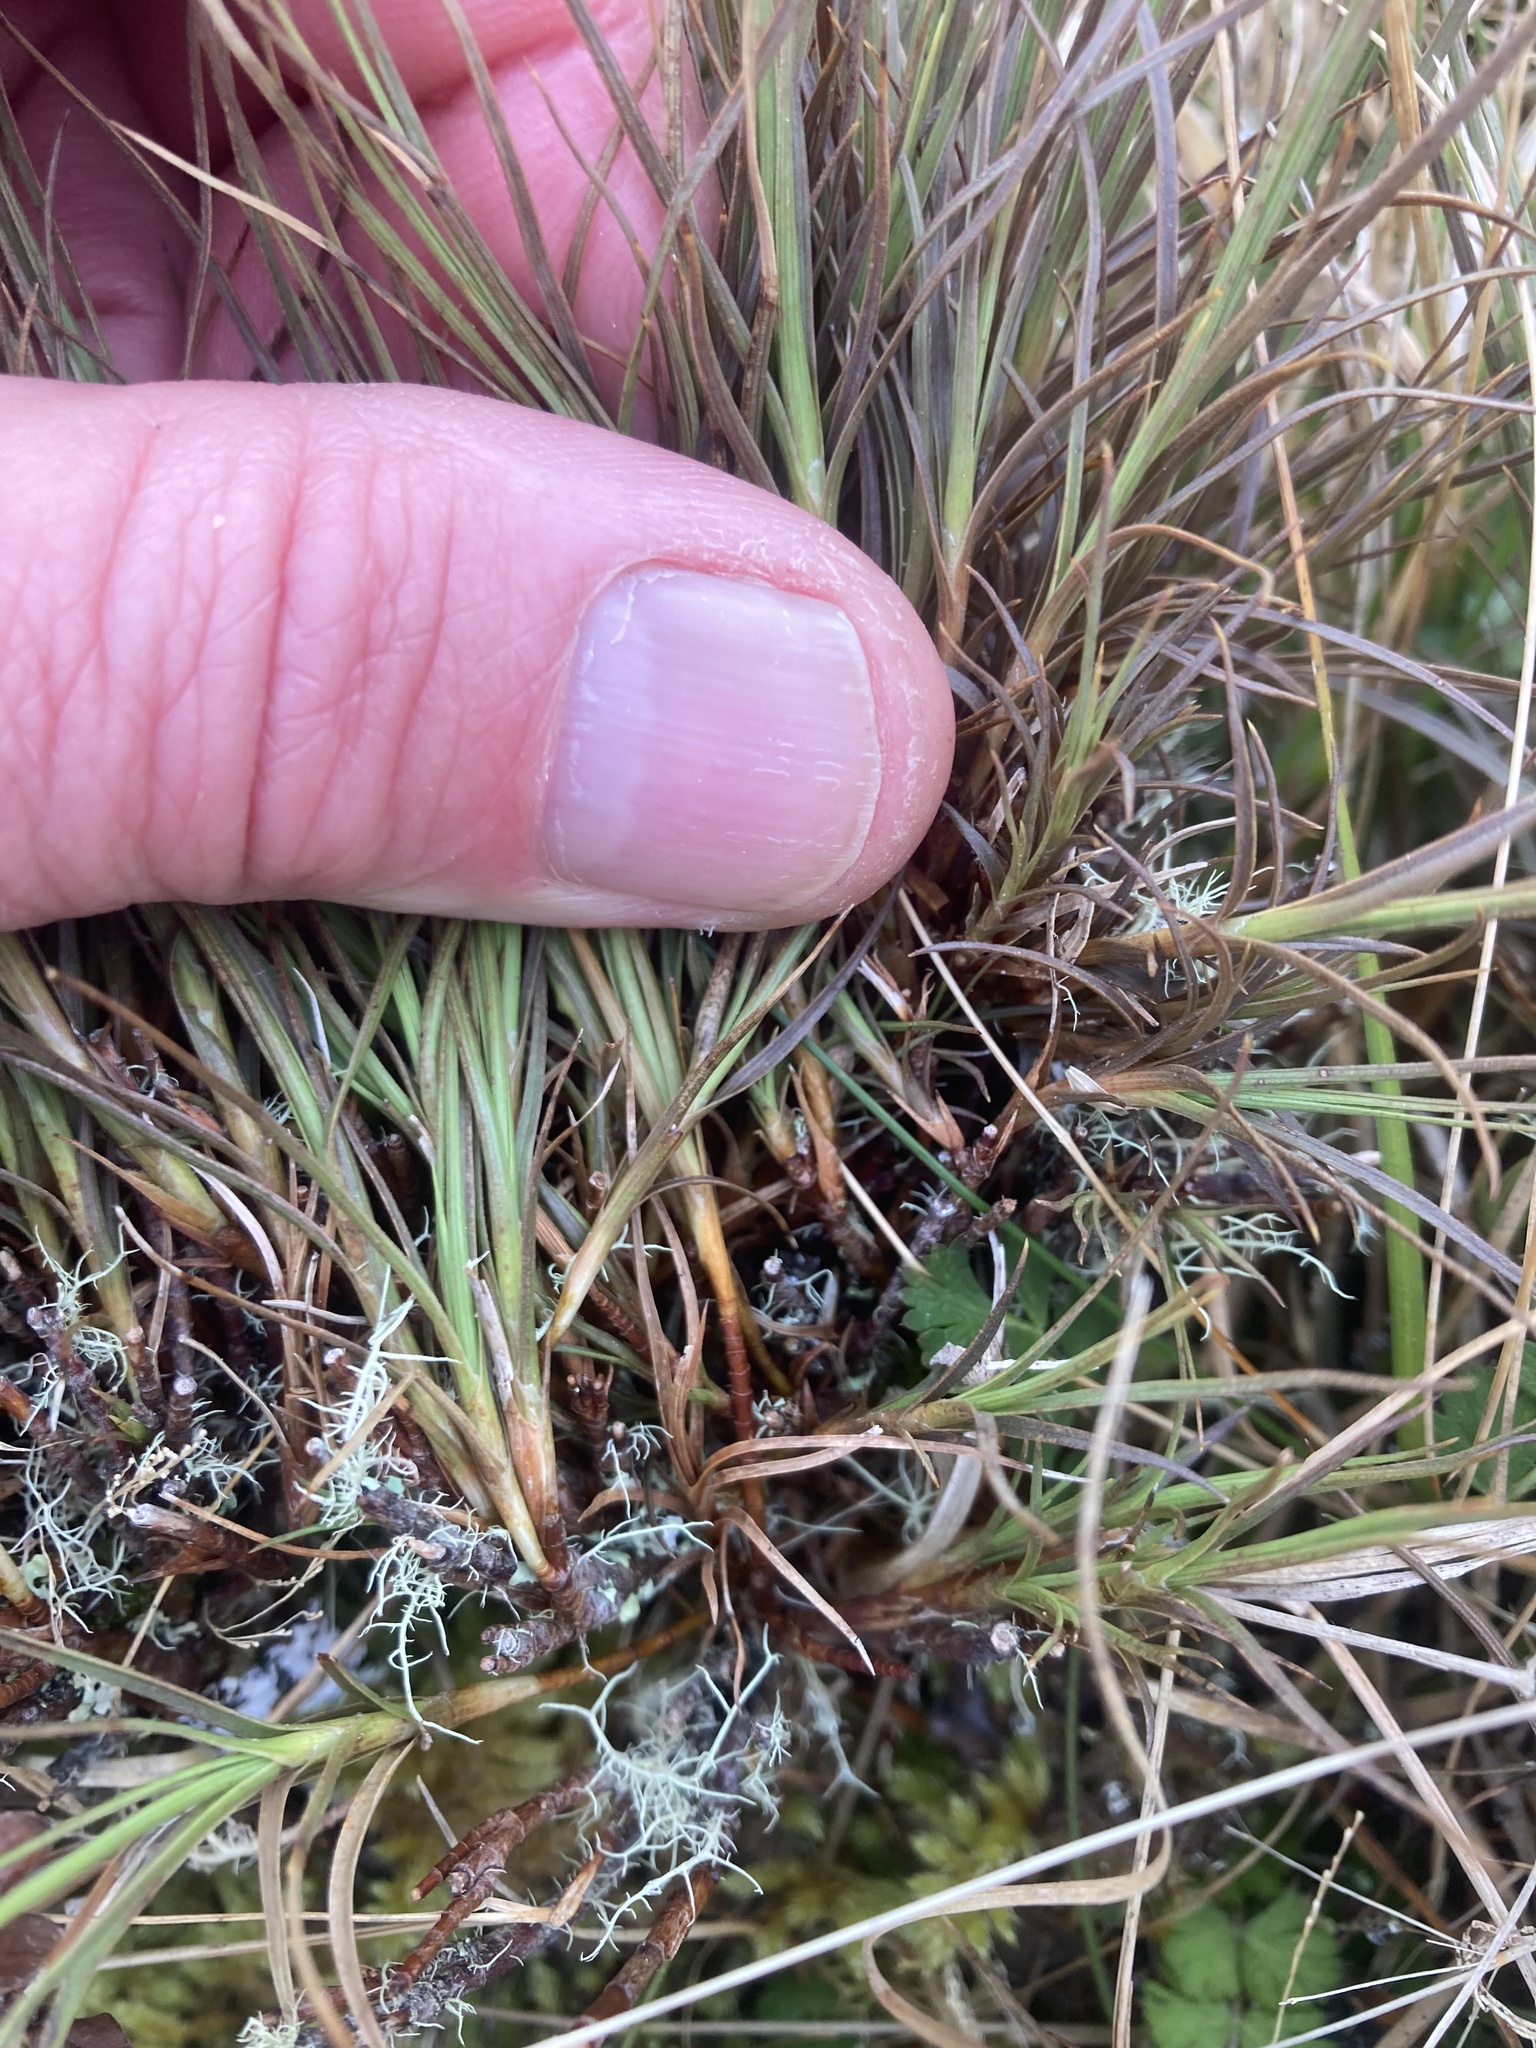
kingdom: Plantae
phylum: Tracheophyta
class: Magnoliopsida
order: Ericales
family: Ericaceae
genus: Dracophyllum
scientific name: Dracophyllum acerosum
